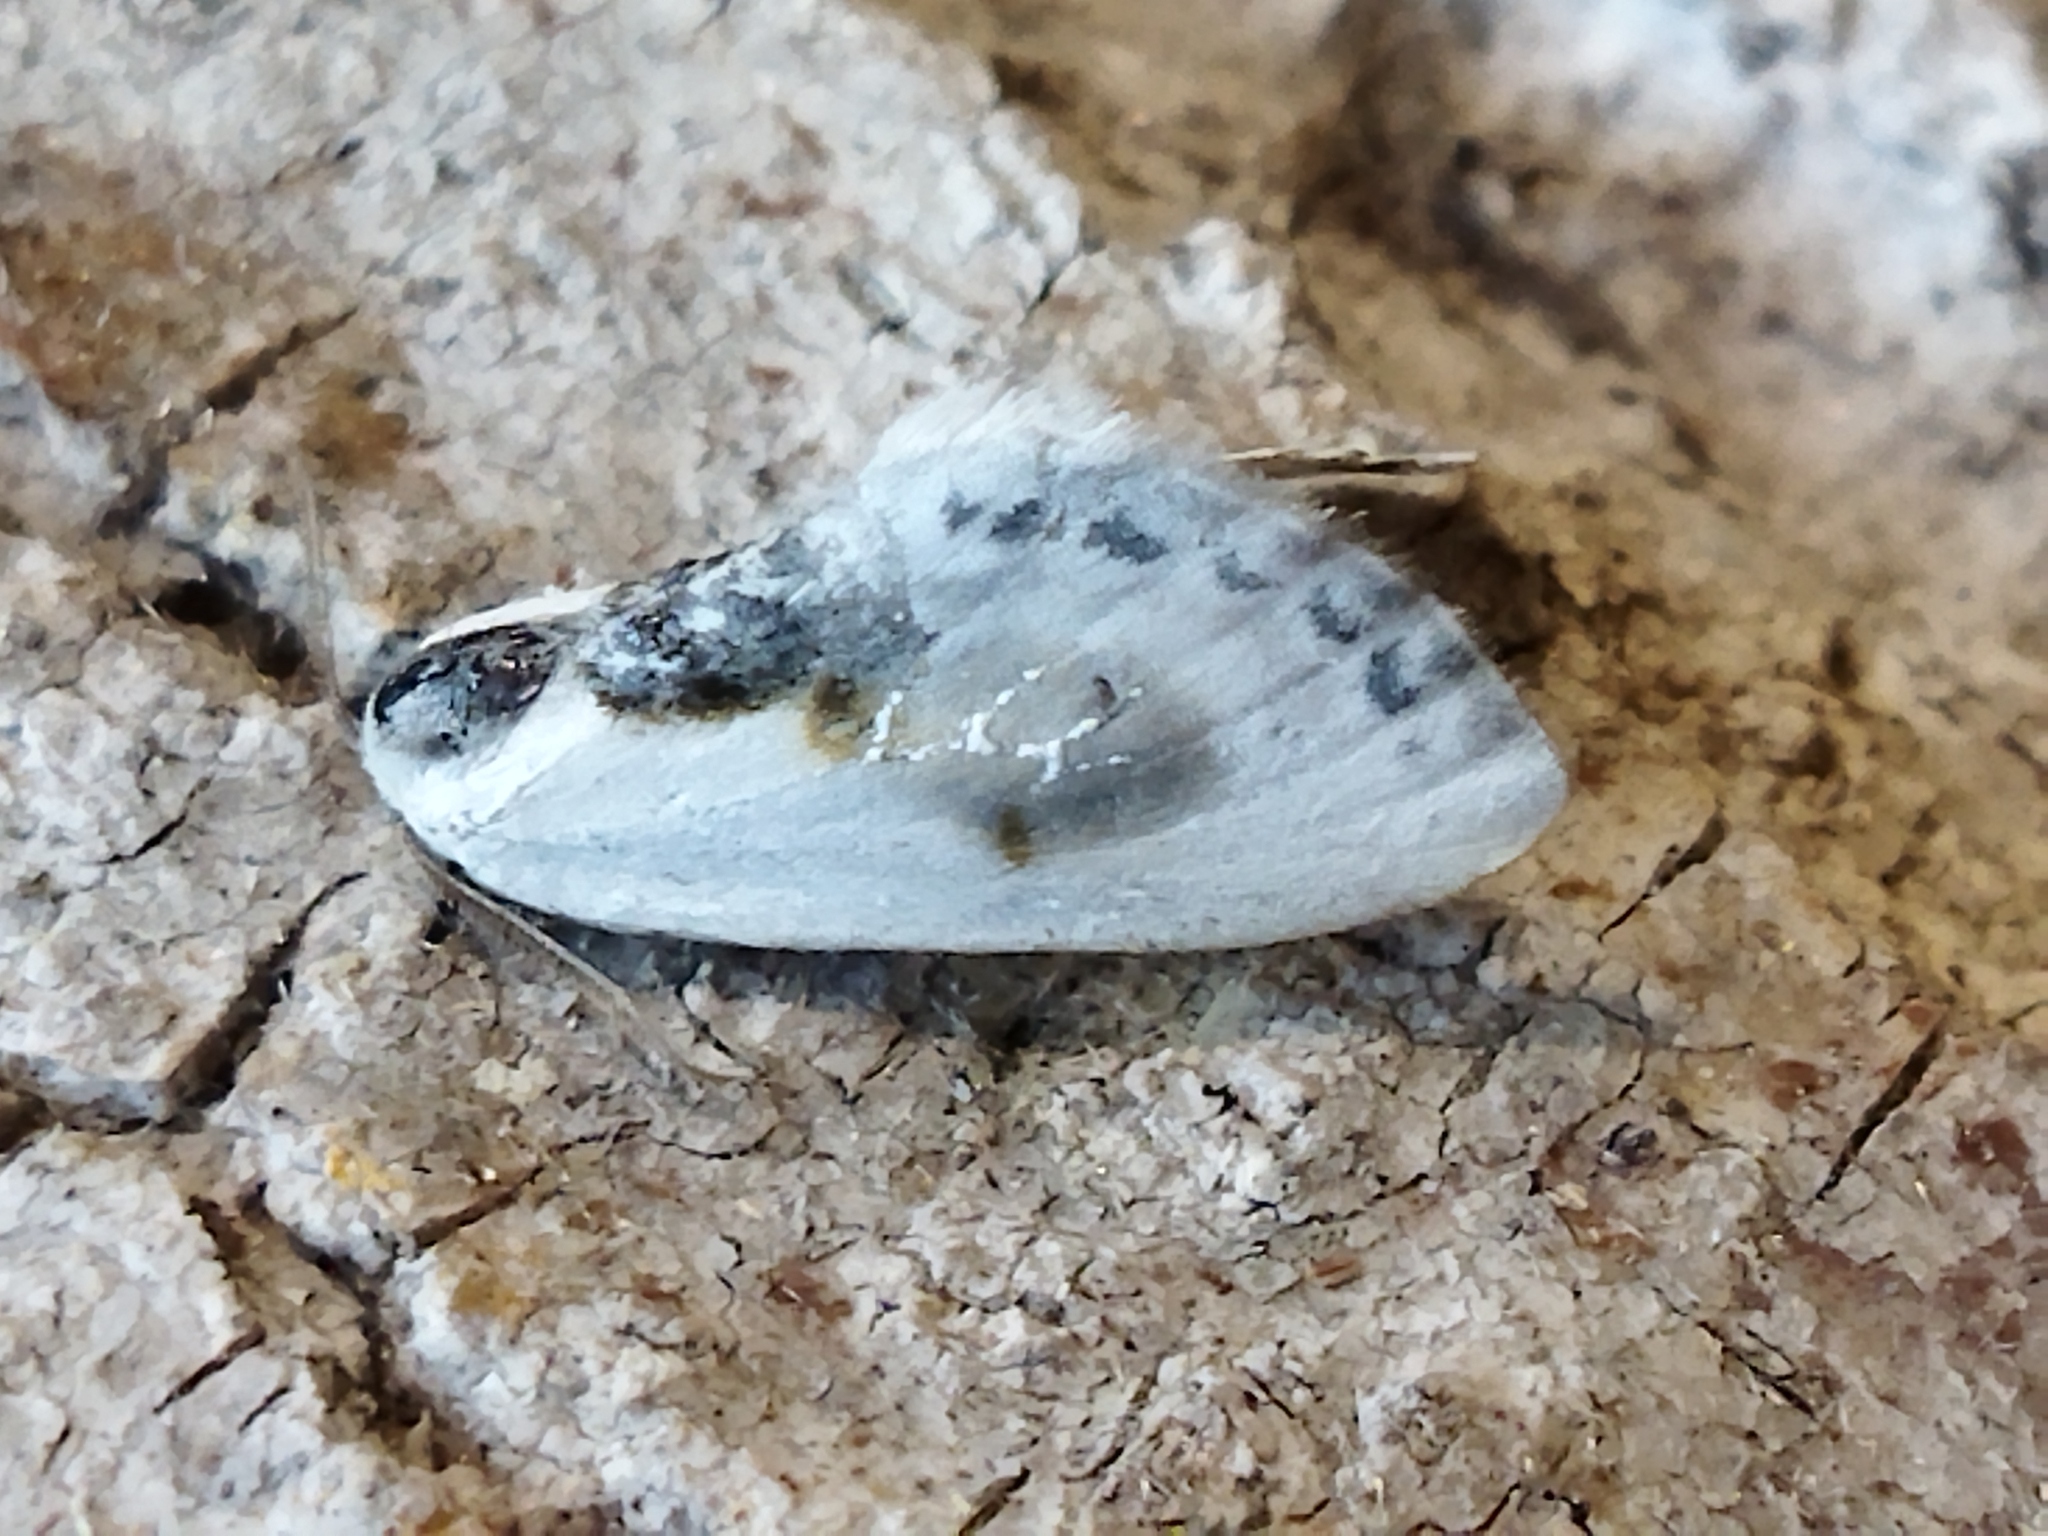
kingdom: Animalia
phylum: Arthropoda
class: Insecta
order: Lepidoptera
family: Drepanidae
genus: Cilix
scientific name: Cilix glaucata
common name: Chinese character
